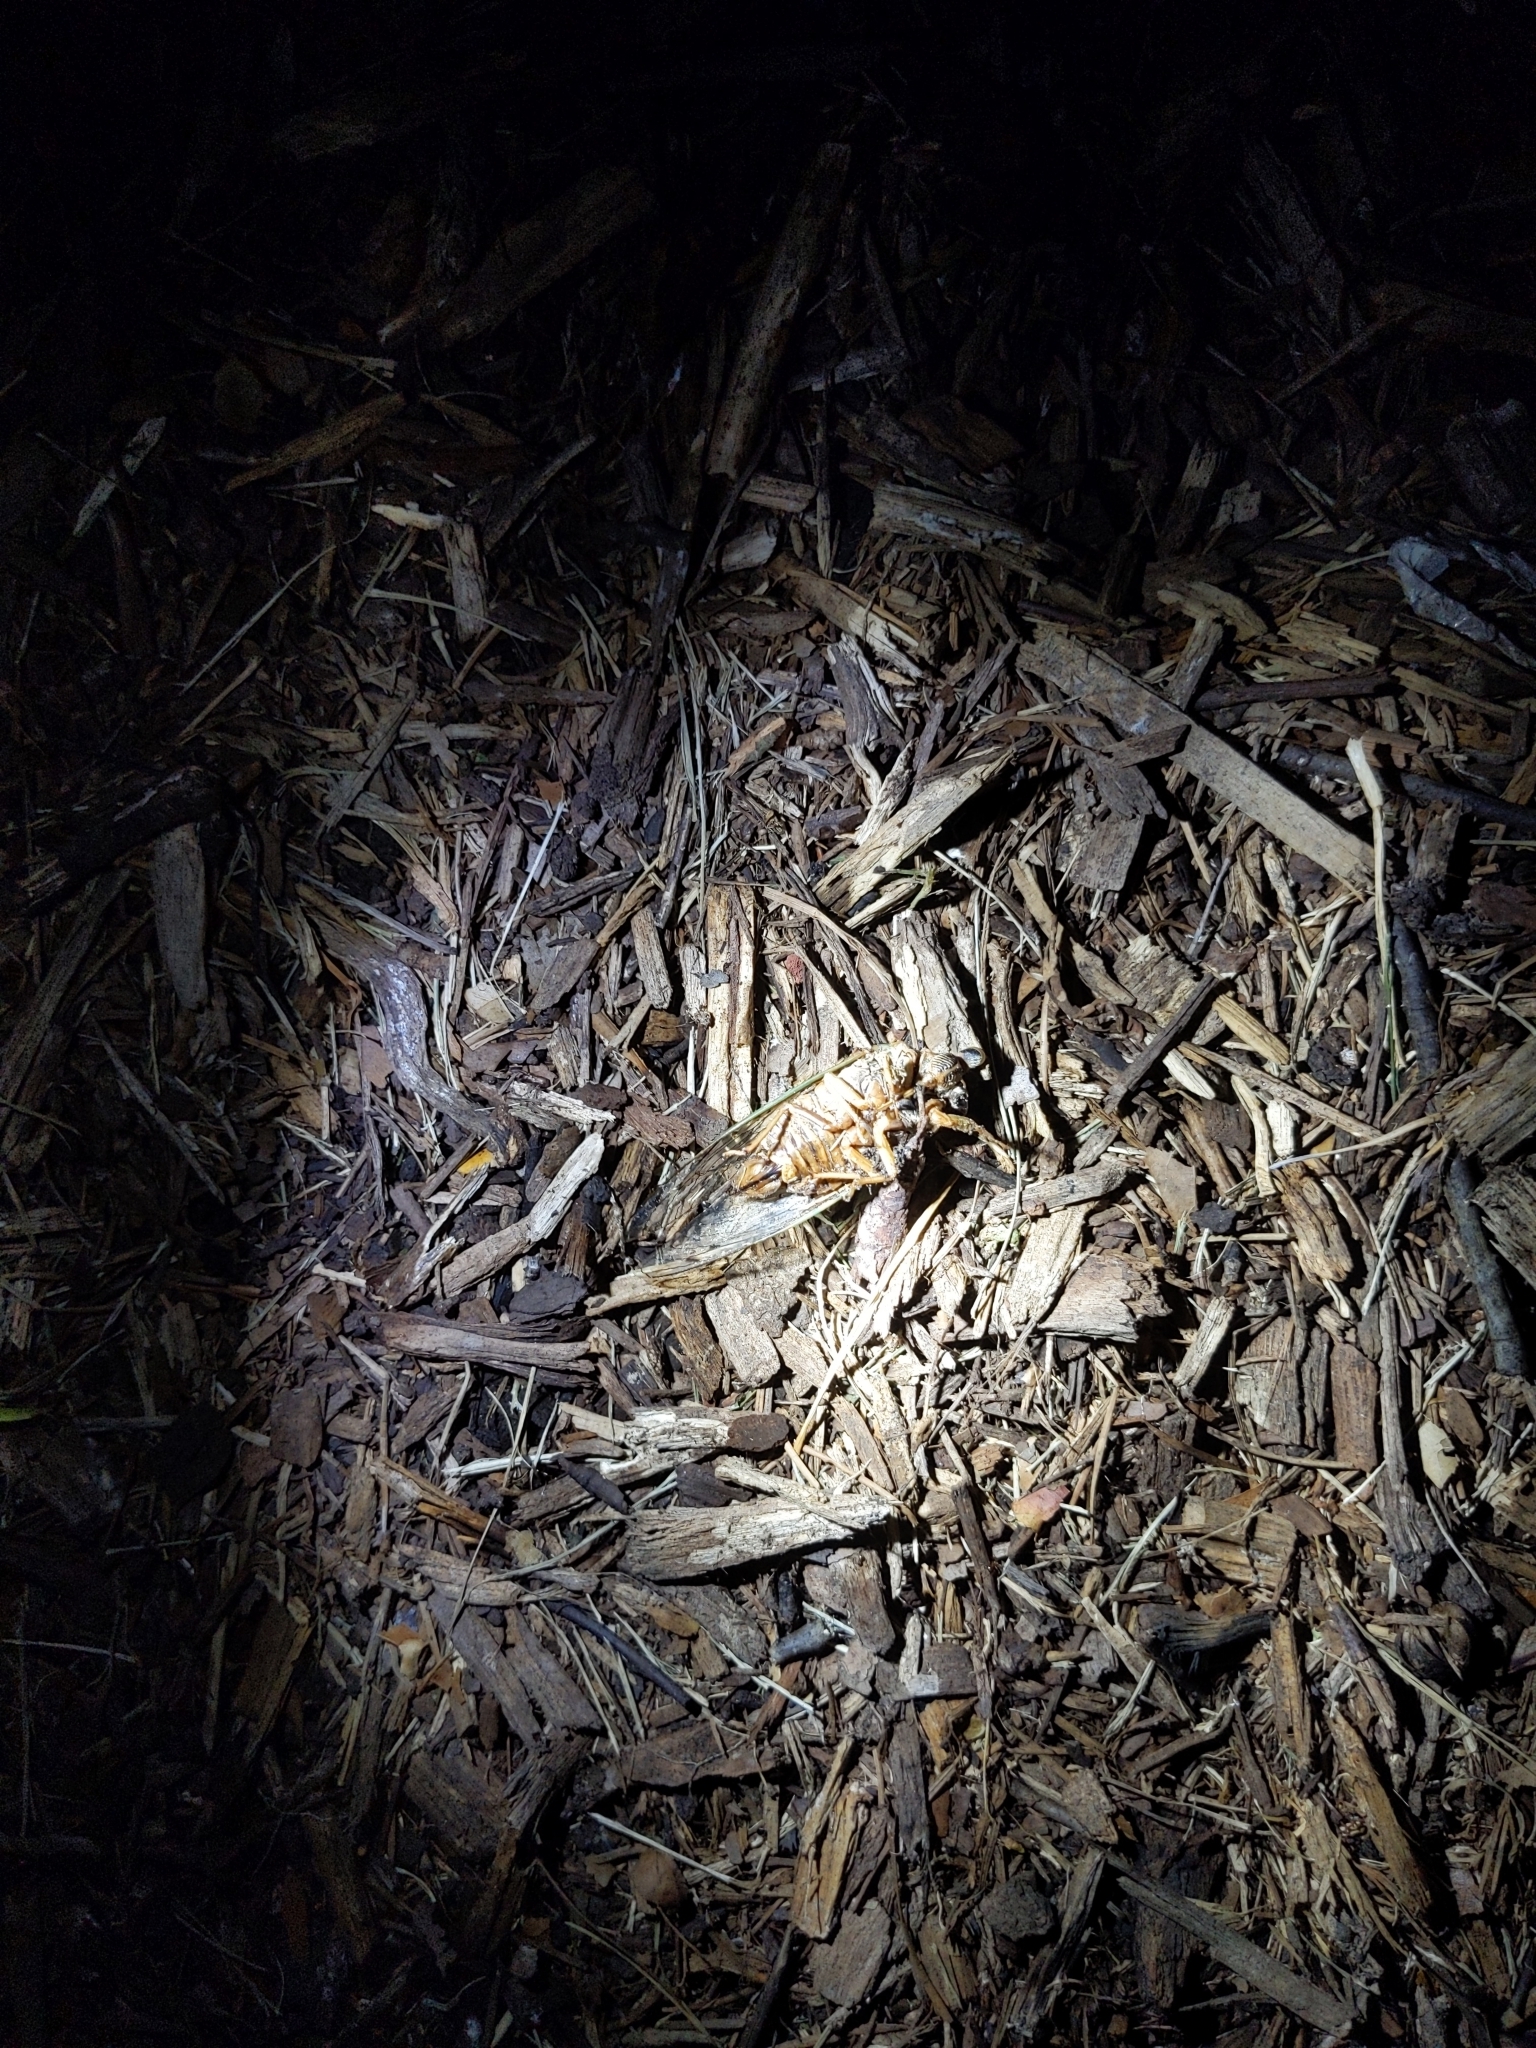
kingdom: Animalia
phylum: Arthropoda
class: Insecta
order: Hemiptera
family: Cicadidae
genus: Megatibicen
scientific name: Megatibicen resh
